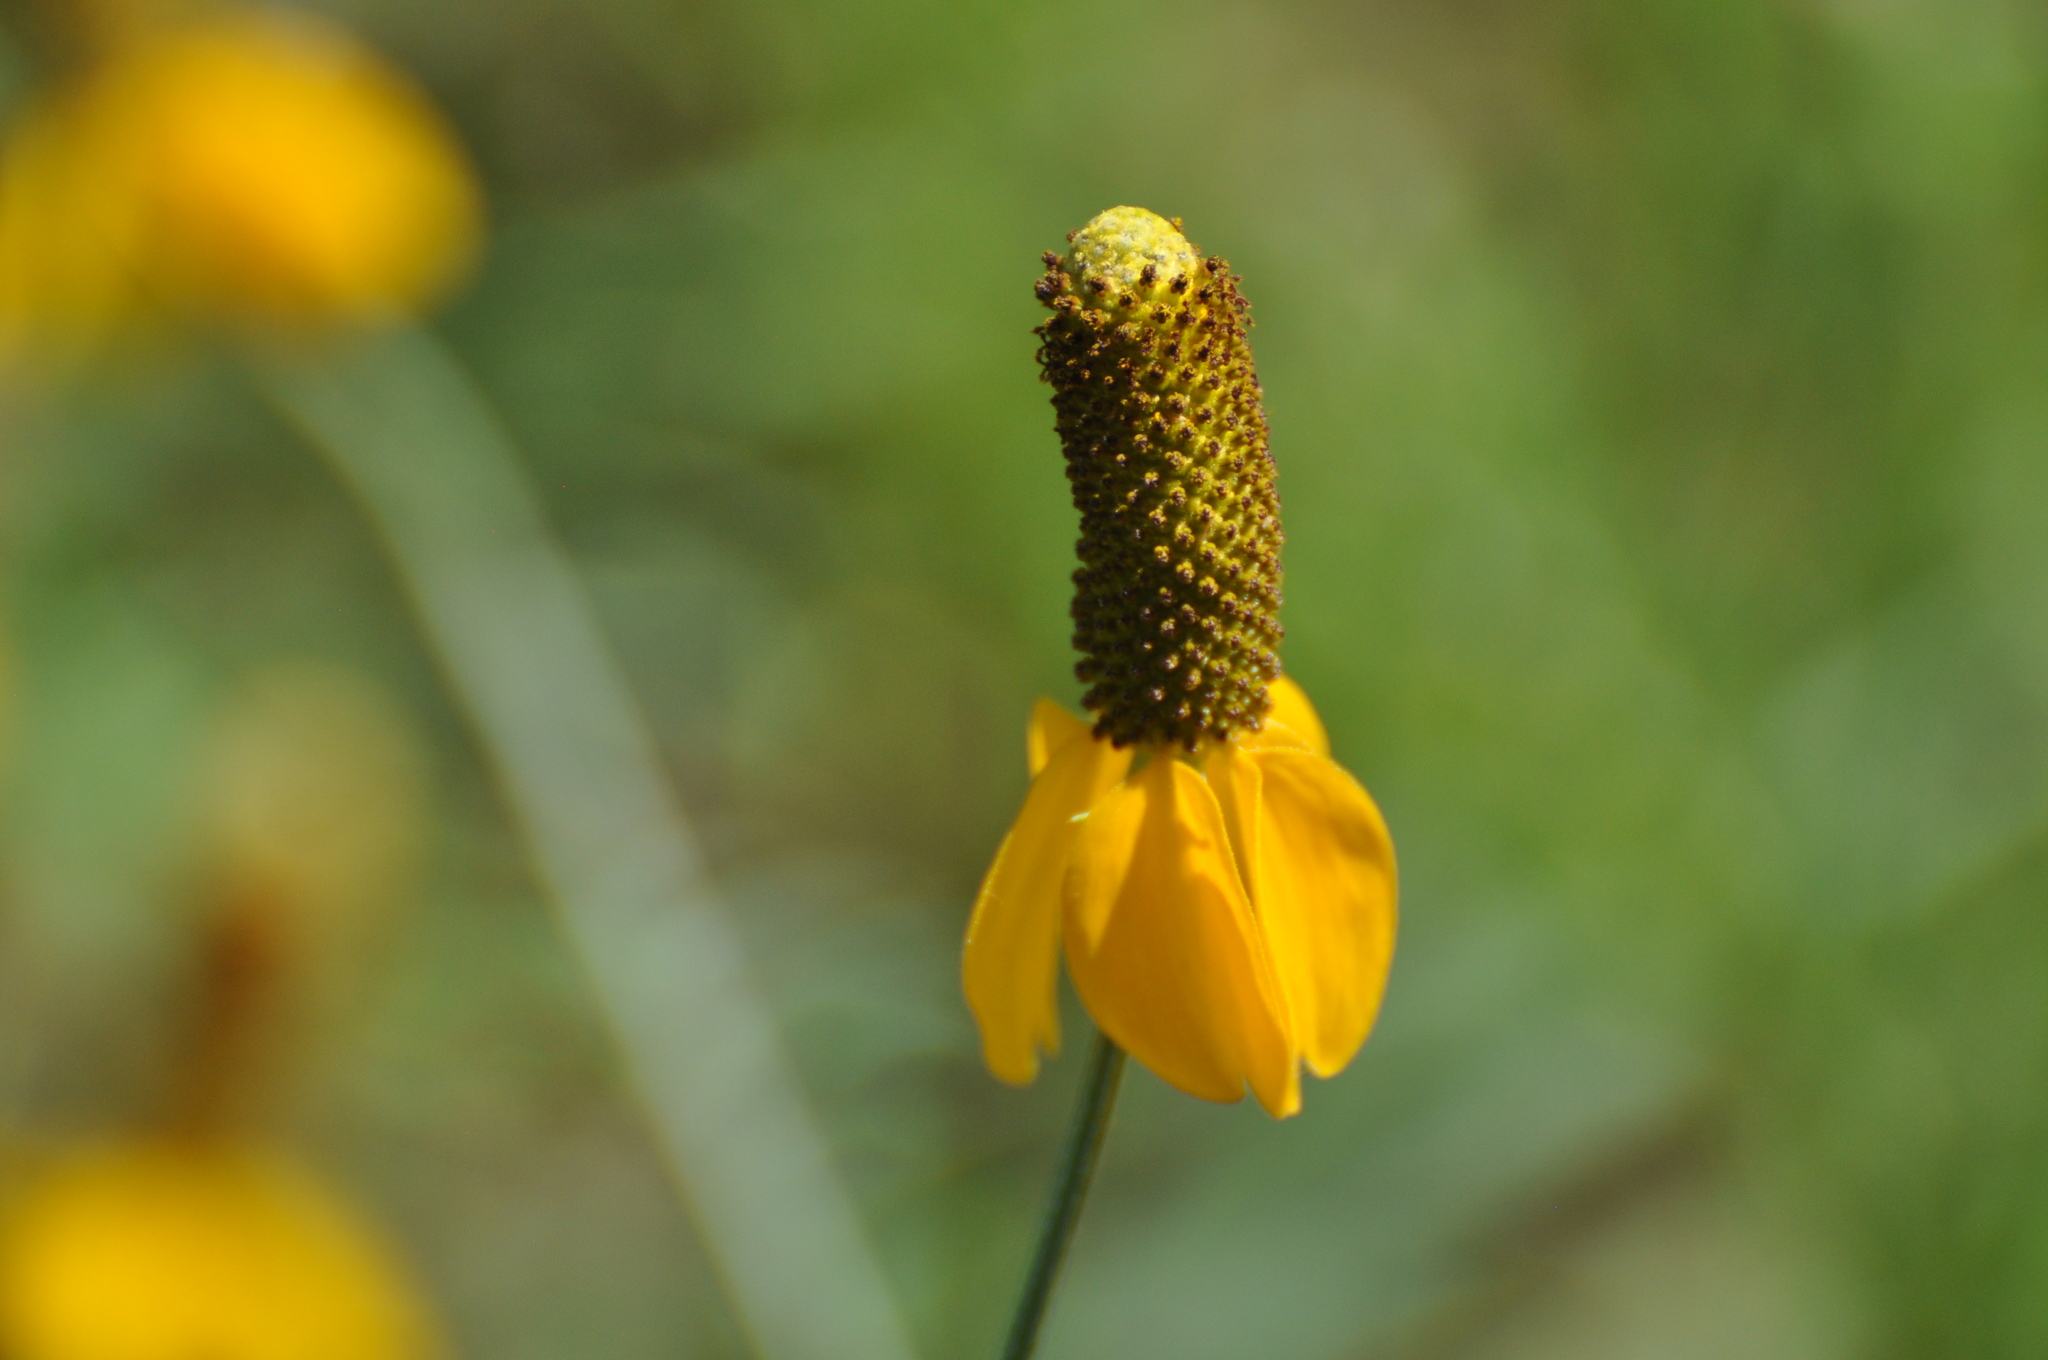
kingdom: Plantae
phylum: Tracheophyta
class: Magnoliopsida
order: Asterales
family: Asteraceae
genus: Ratibida
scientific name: Ratibida columnifera
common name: Prairie coneflower
